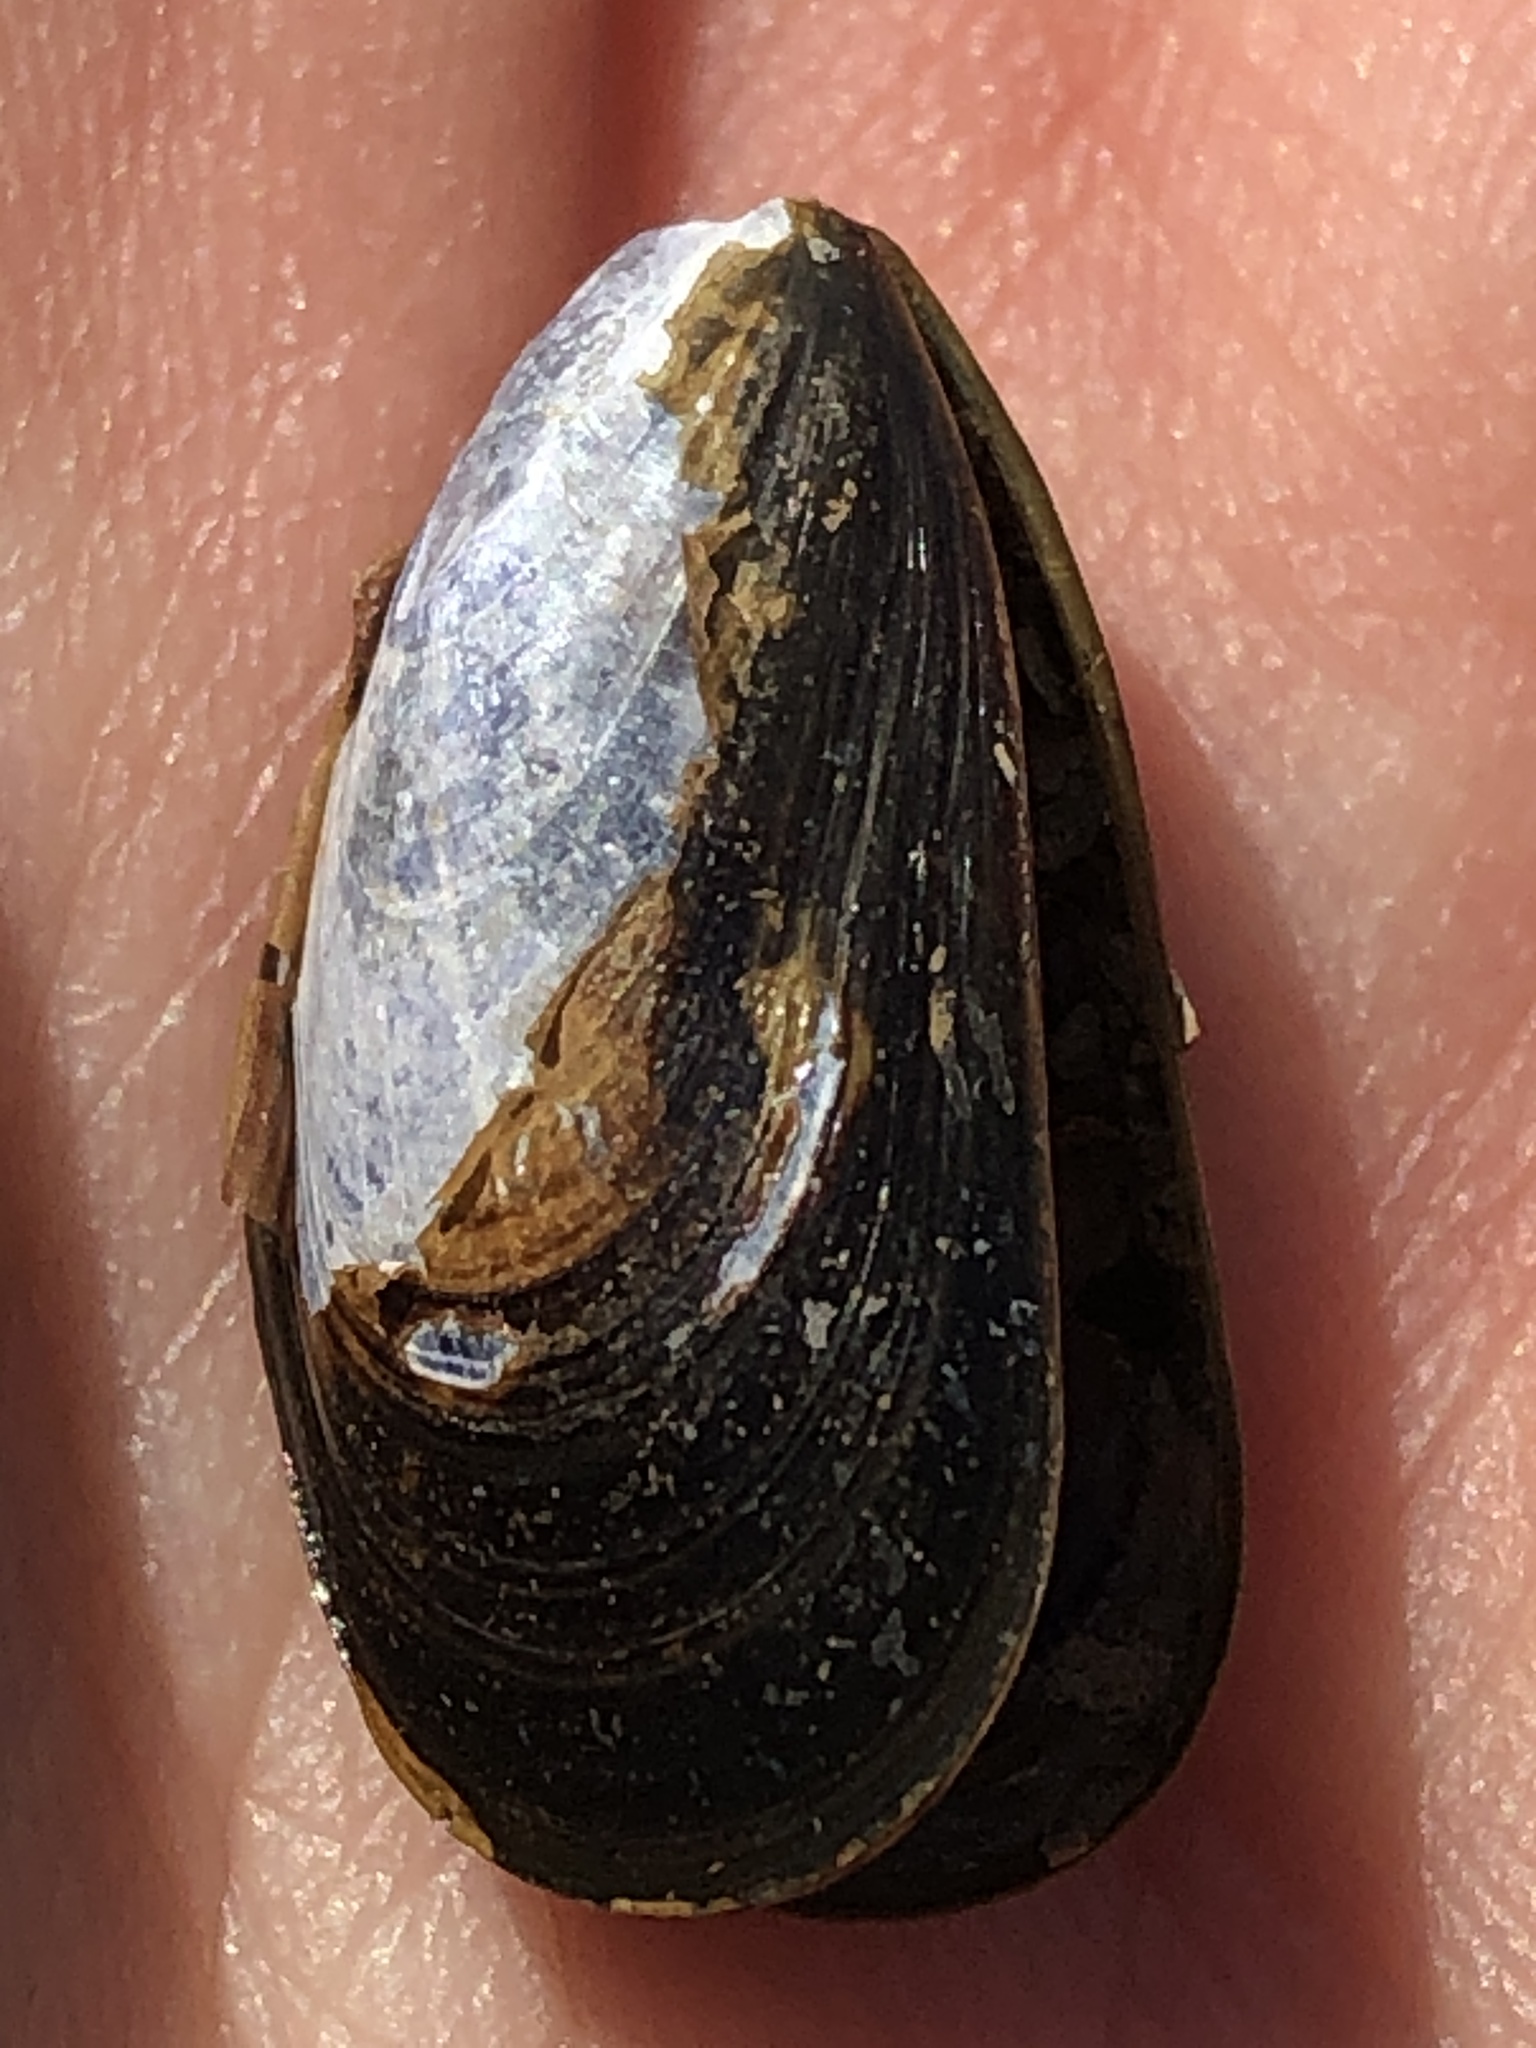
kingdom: Animalia
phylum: Mollusca
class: Bivalvia
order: Mytilida
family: Mytilidae
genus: Mytilus
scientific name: Mytilus edulis
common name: Blue mussel
